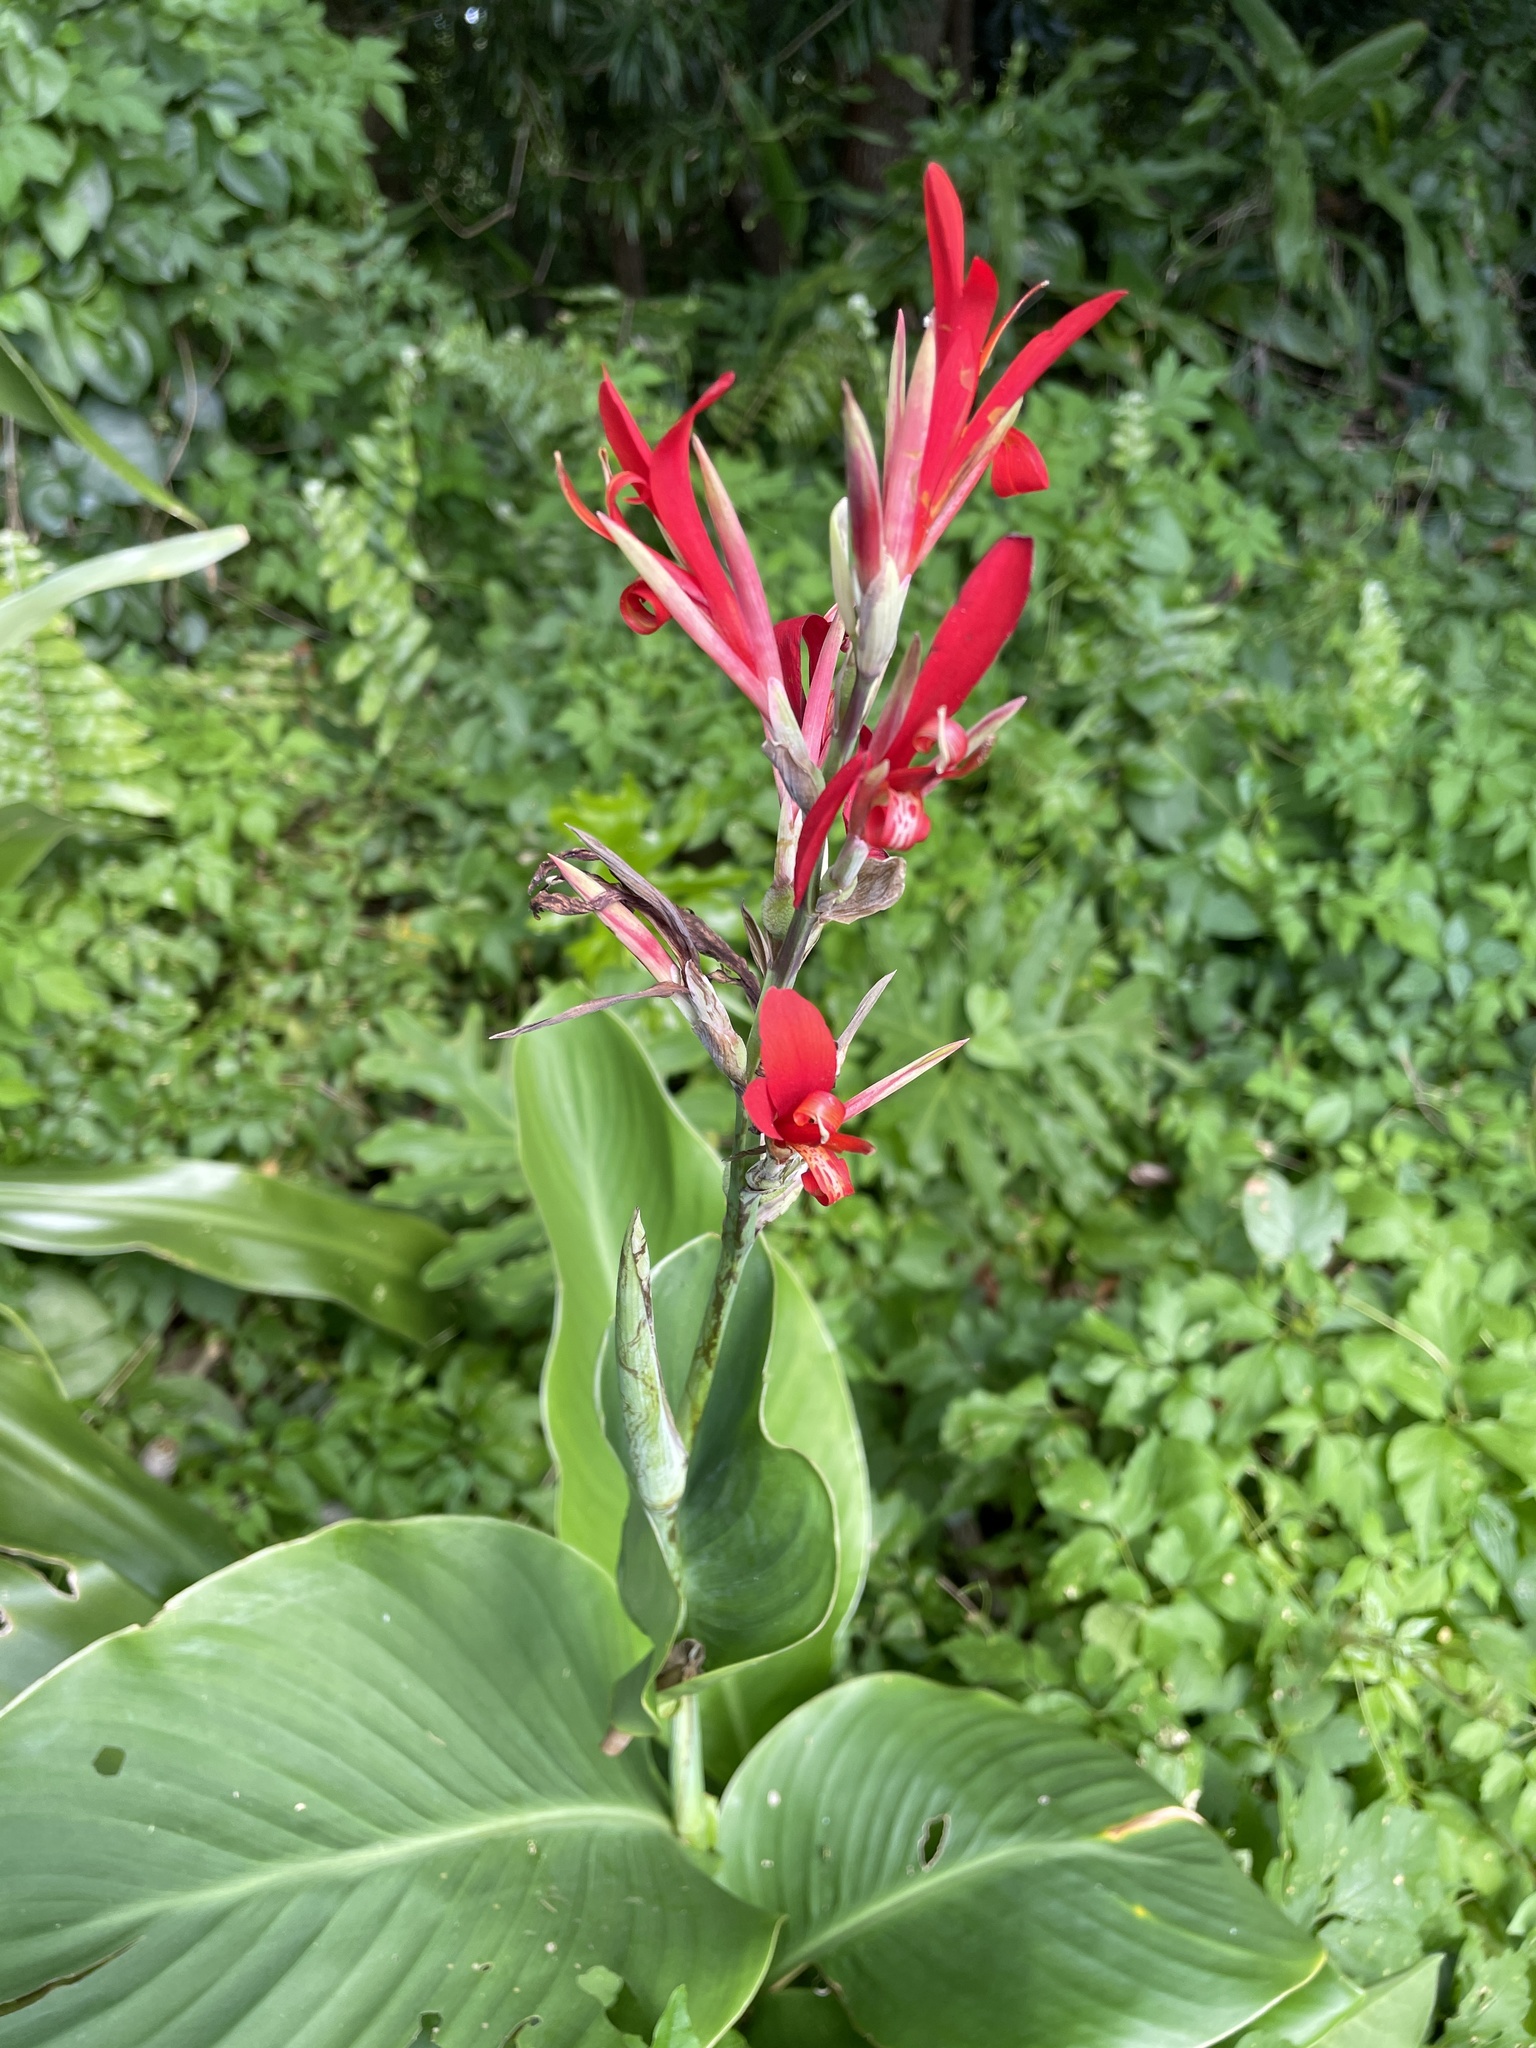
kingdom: Plantae
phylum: Tracheophyta
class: Liliopsida
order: Zingiberales
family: Cannaceae
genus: Canna
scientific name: Canna indica
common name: Indian shot
